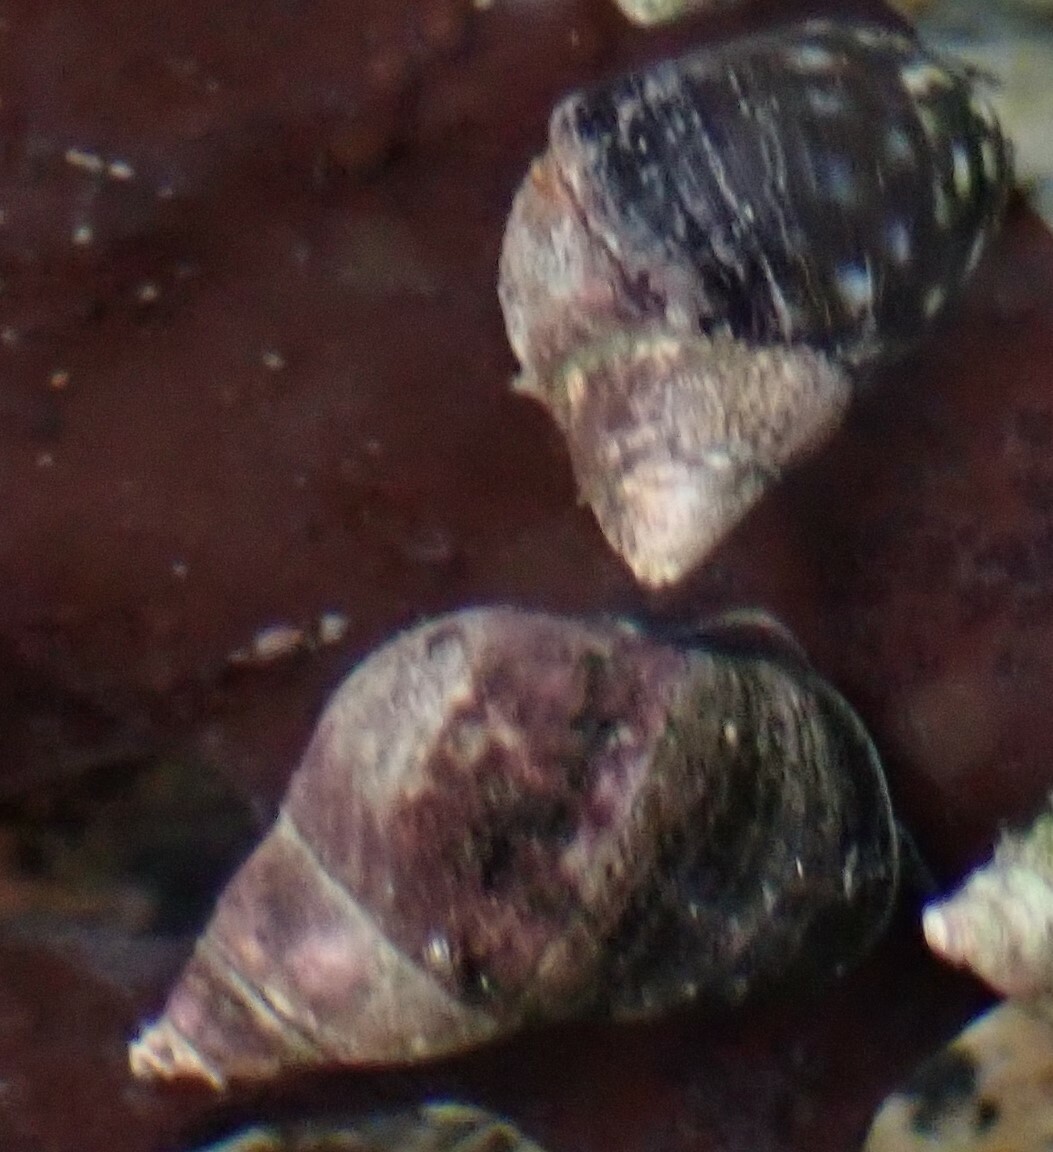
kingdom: Animalia
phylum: Mollusca
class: Gastropoda
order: Littorinimorpha
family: Littorinidae
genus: Littorina
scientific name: Littorina scutulata
